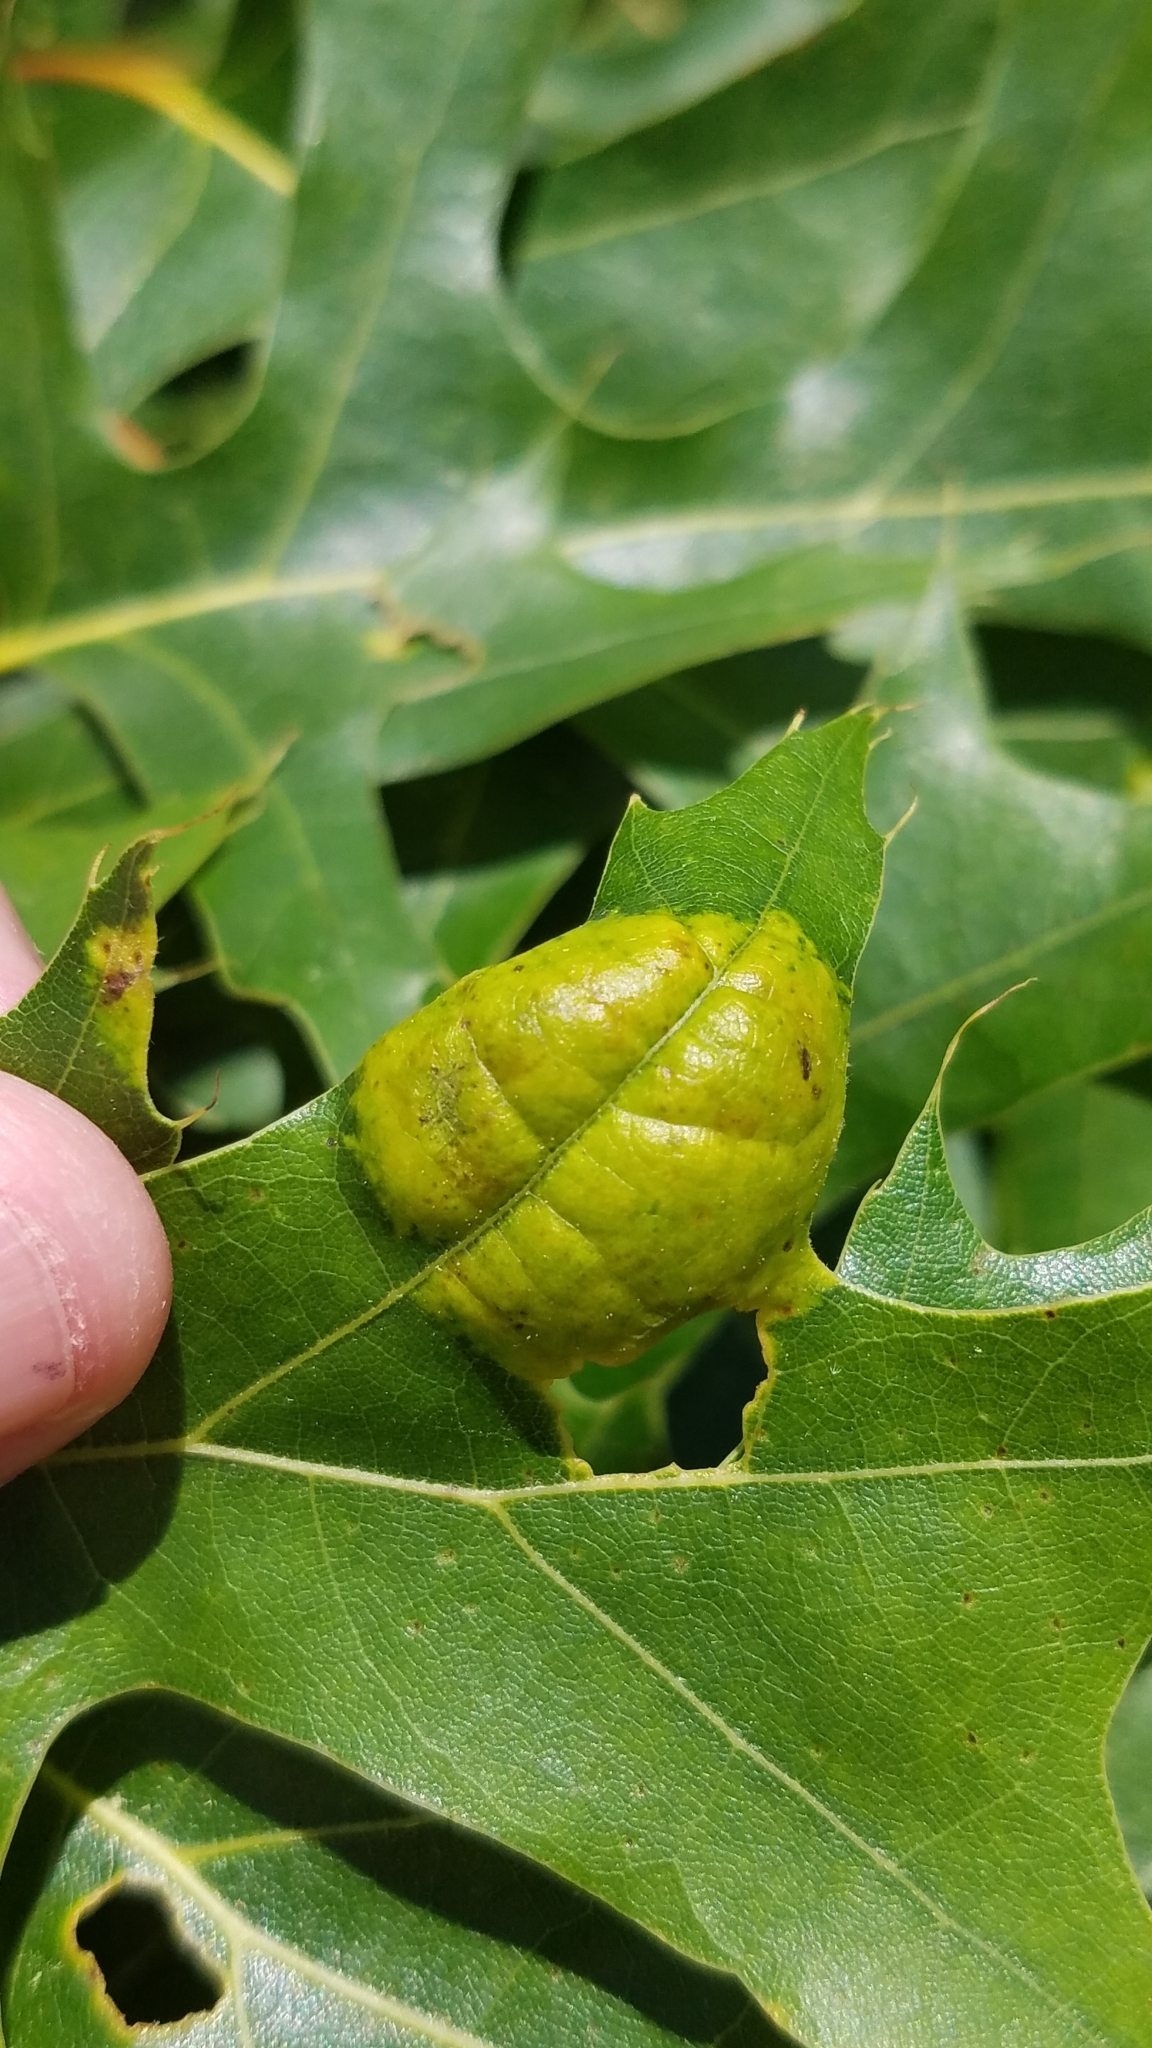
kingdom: Fungi
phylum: Ascomycota
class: Taphrinomycetes
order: Taphrinales
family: Taphrinaceae
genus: Taphrina
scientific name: Taphrina caerulescens
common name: Oak leaf blister
